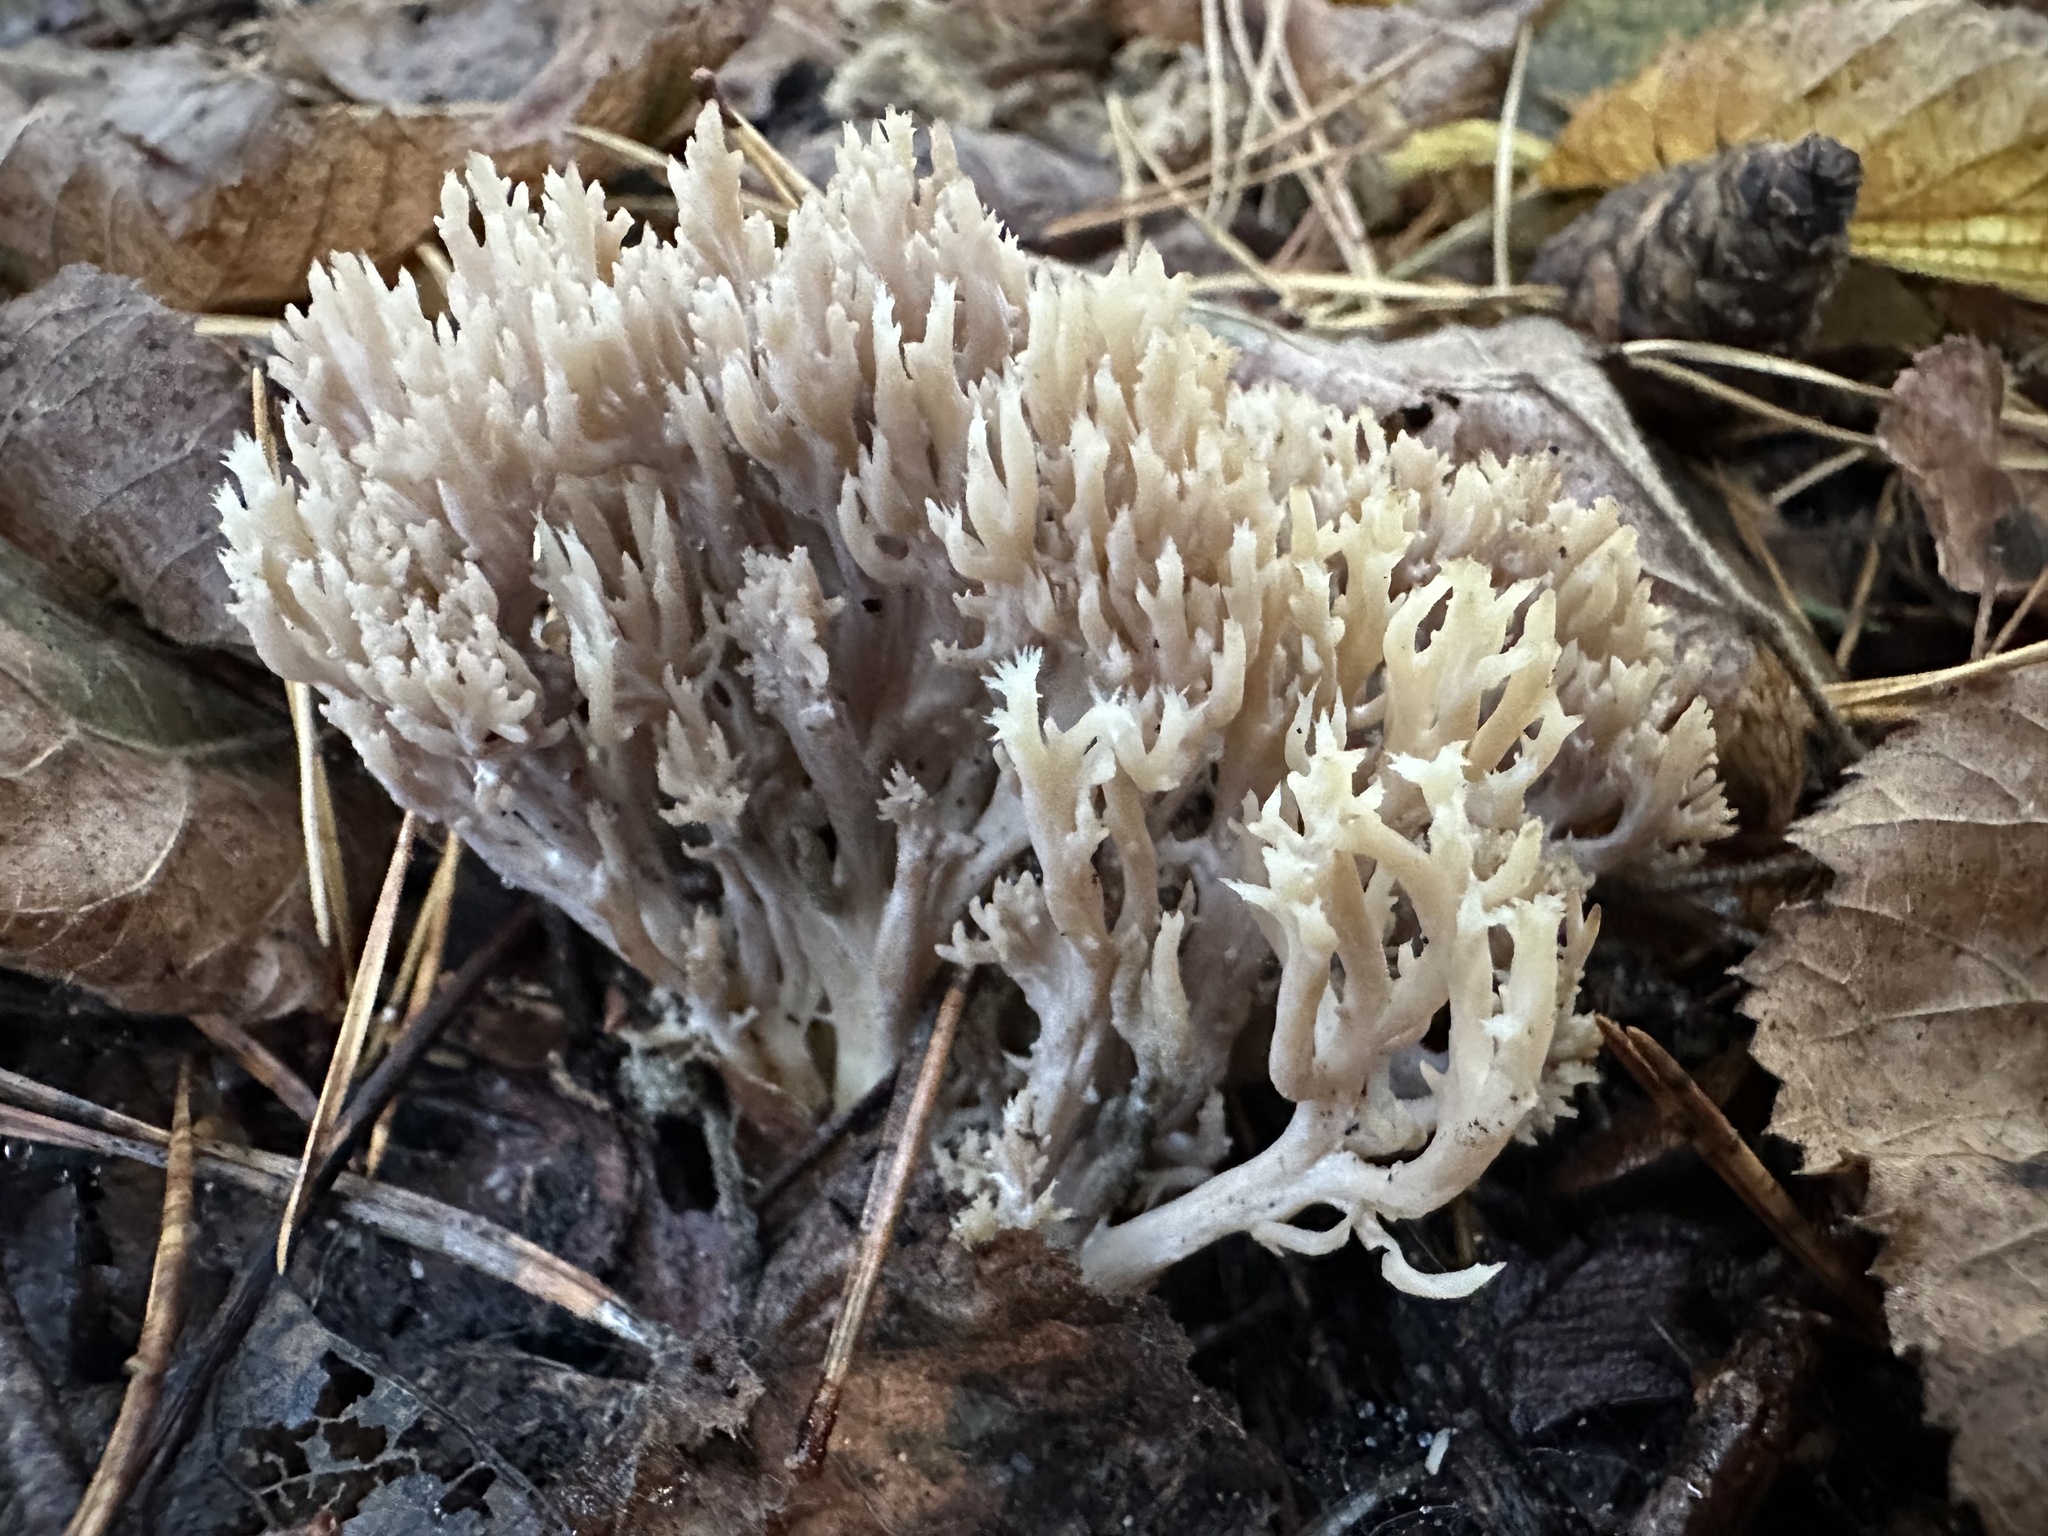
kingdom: Fungi
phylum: Basidiomycota
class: Agaricomycetes
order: Cantharellales
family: Hydnaceae
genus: Clavulina
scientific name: Clavulina coralloides
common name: Crested coral
